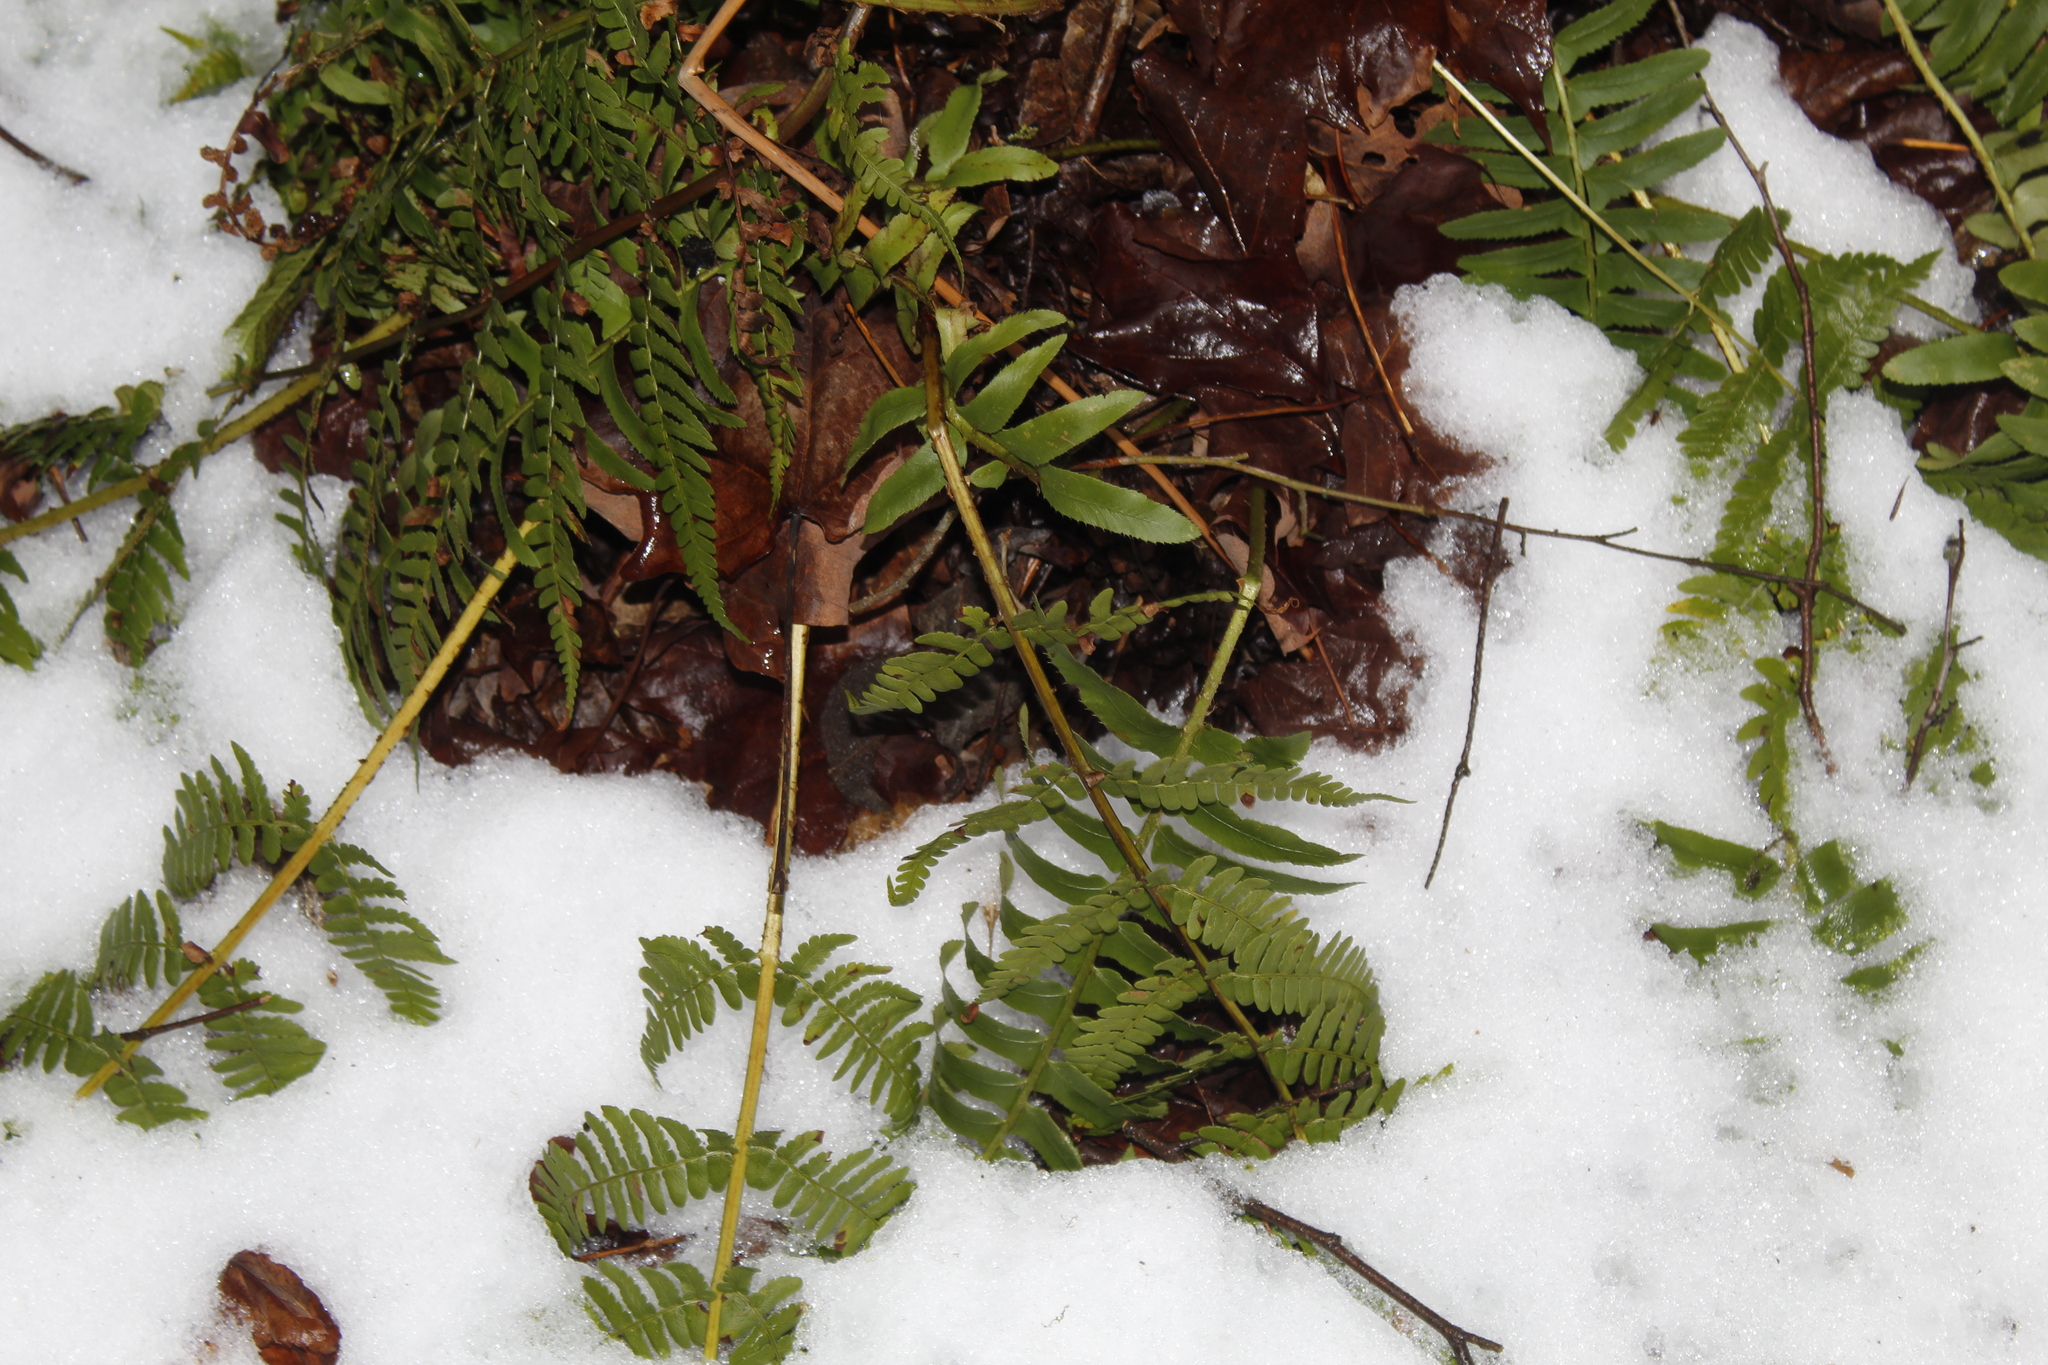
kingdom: Plantae
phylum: Tracheophyta
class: Polypodiopsida
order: Polypodiales
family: Dryopteridaceae
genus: Dryopteris
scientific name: Dryopteris marginalis
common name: Marginal wood fern
